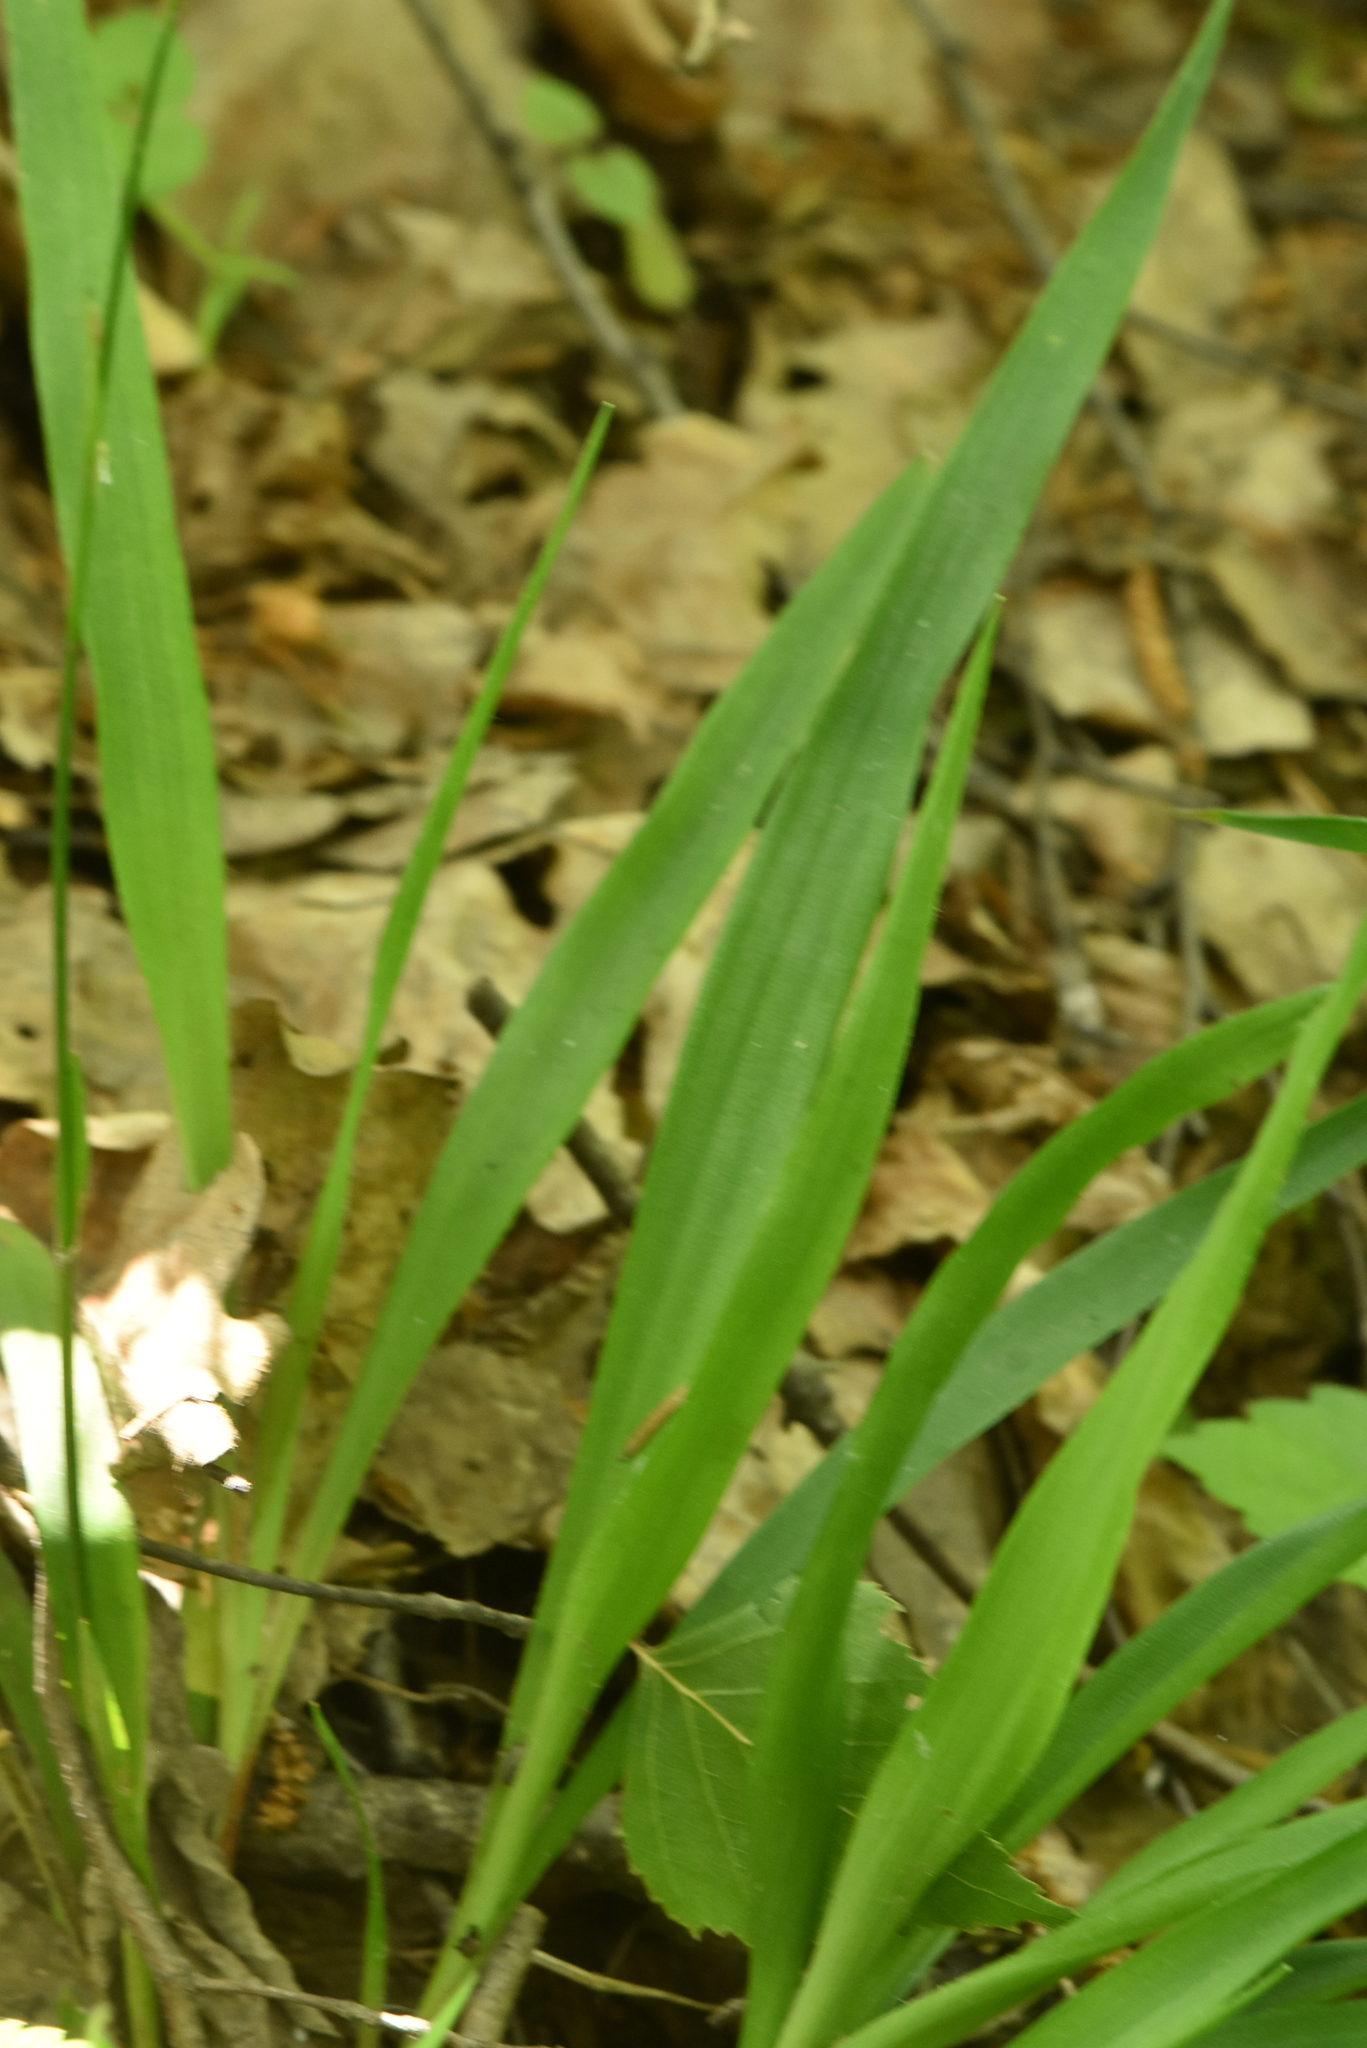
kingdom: Plantae
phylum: Tracheophyta
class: Liliopsida
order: Poales
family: Juncaceae
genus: Luzula
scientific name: Luzula pilosa
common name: Hairy wood-rush
